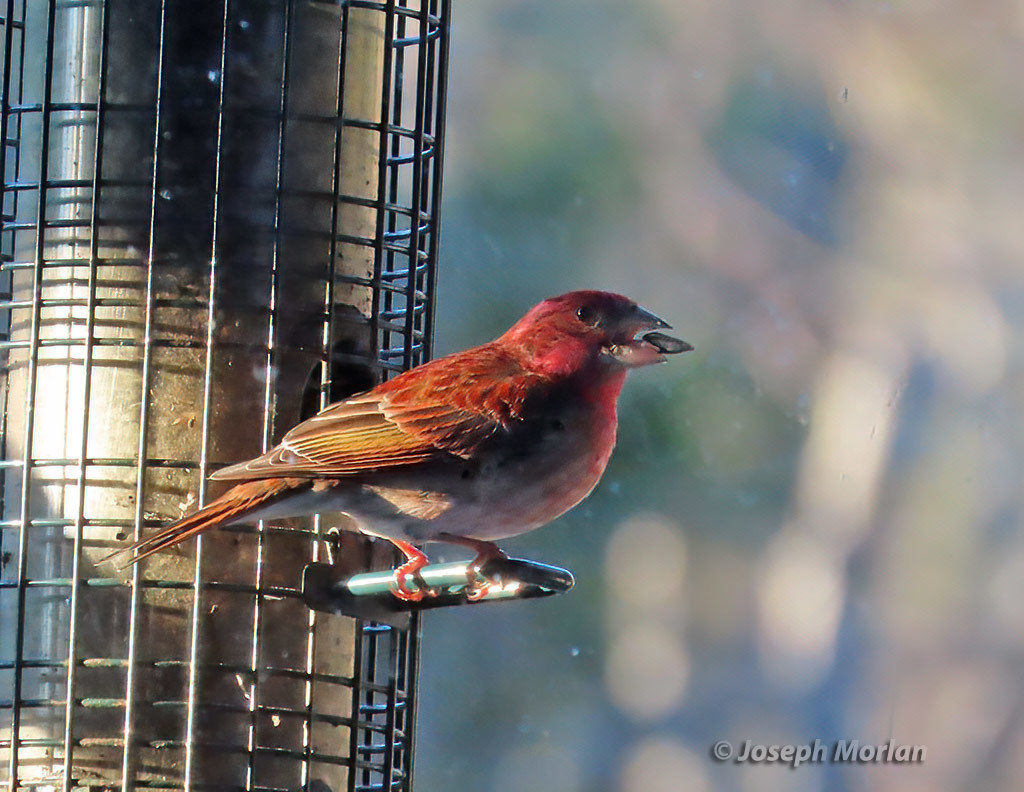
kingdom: Animalia
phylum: Chordata
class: Aves
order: Passeriformes
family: Fringillidae
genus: Haemorhous
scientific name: Haemorhous purpureus
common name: Purple finch
